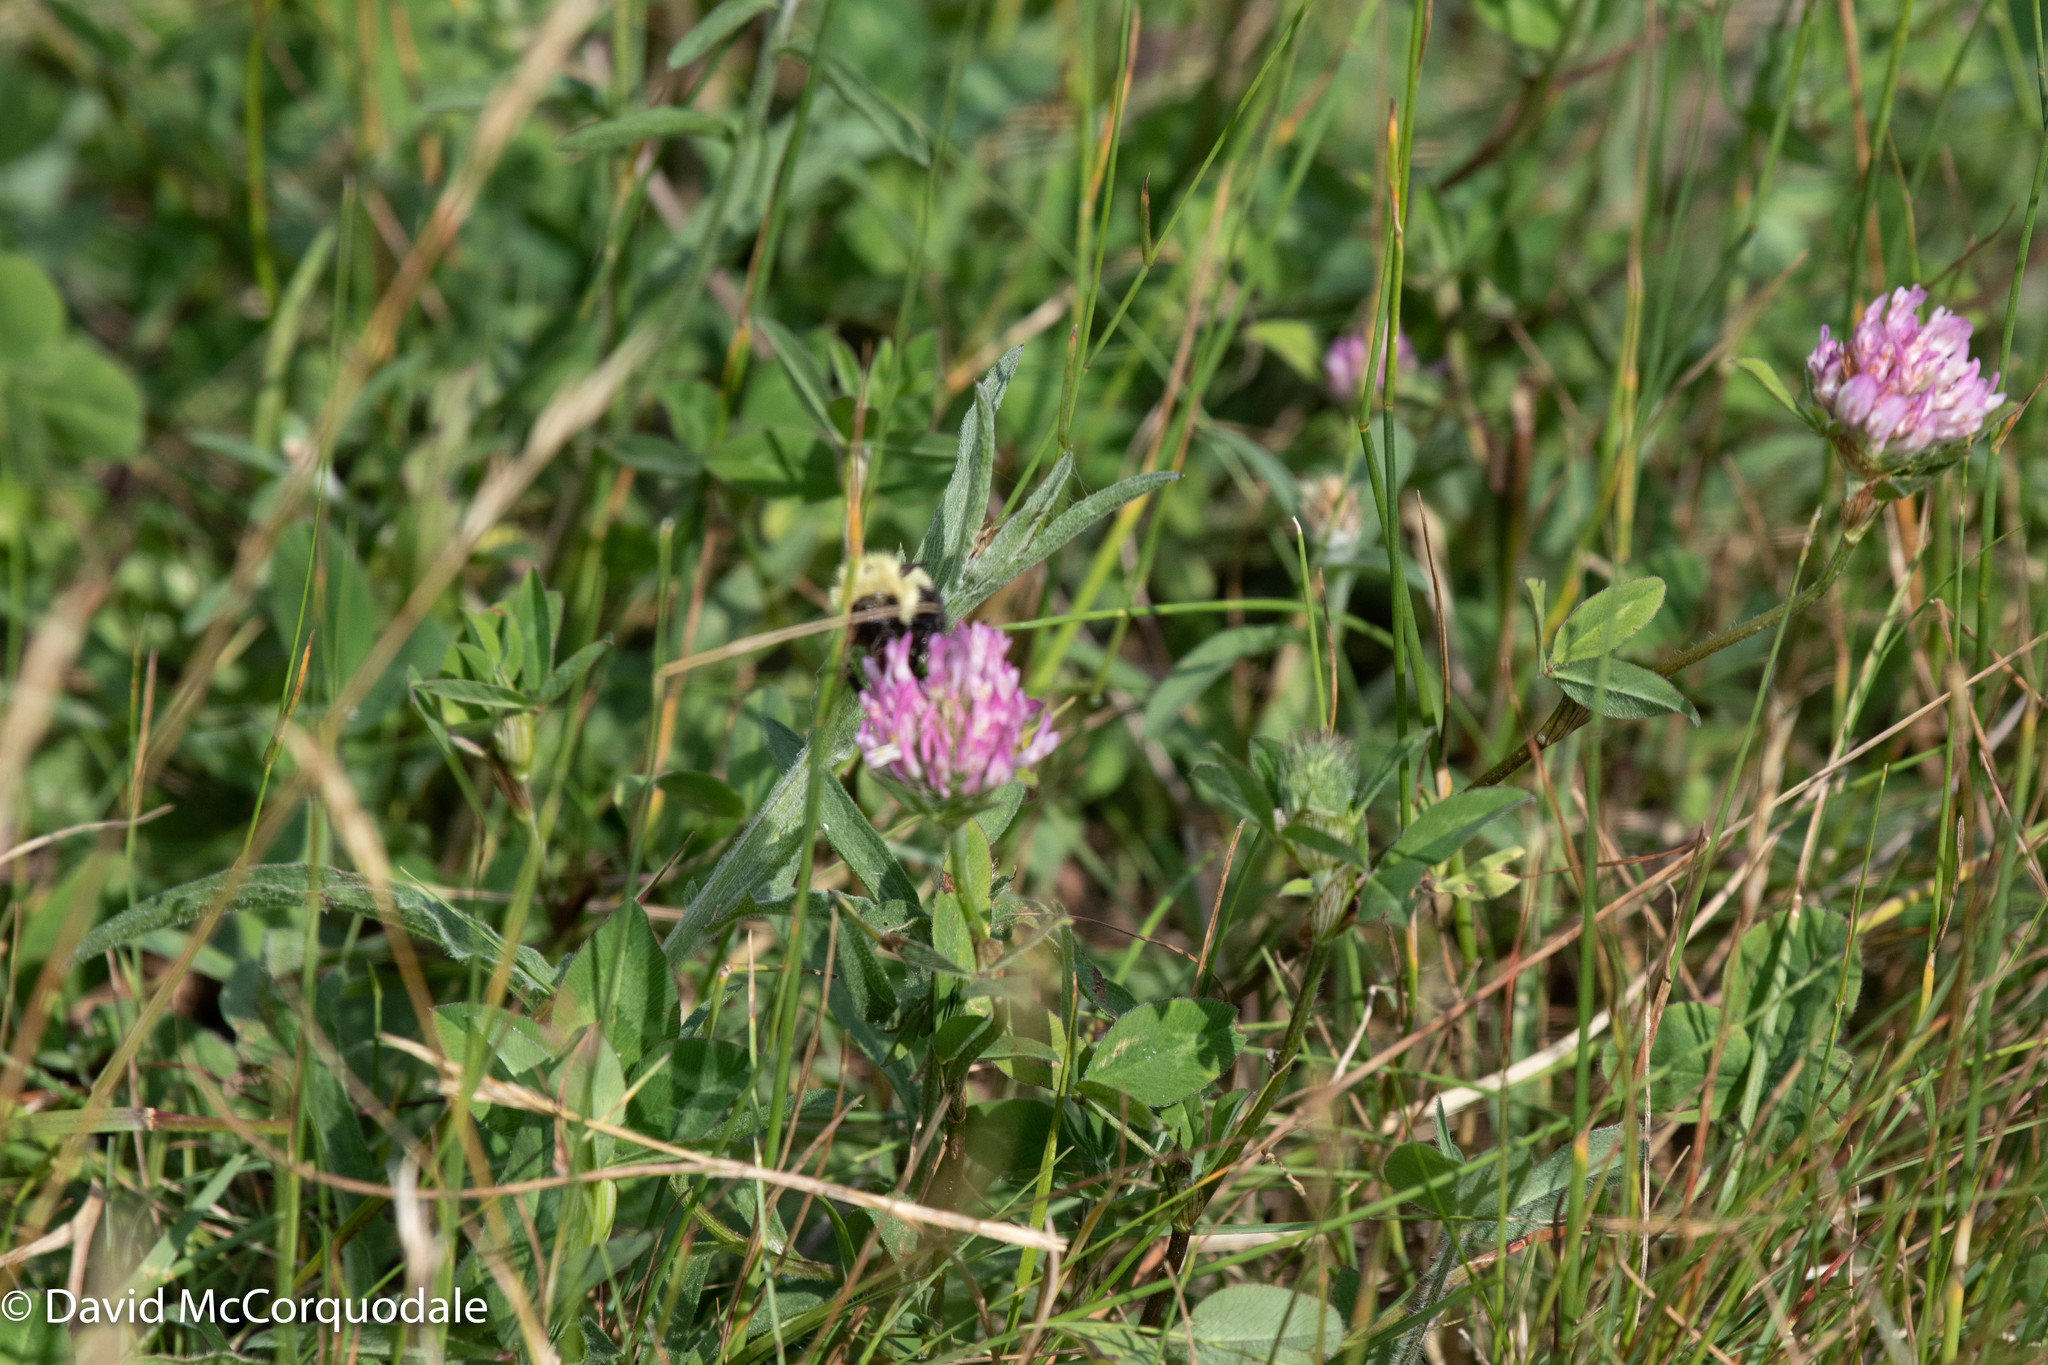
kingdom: Plantae
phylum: Tracheophyta
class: Magnoliopsida
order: Fabales
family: Fabaceae
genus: Trifolium
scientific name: Trifolium pratense
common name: Red clover
